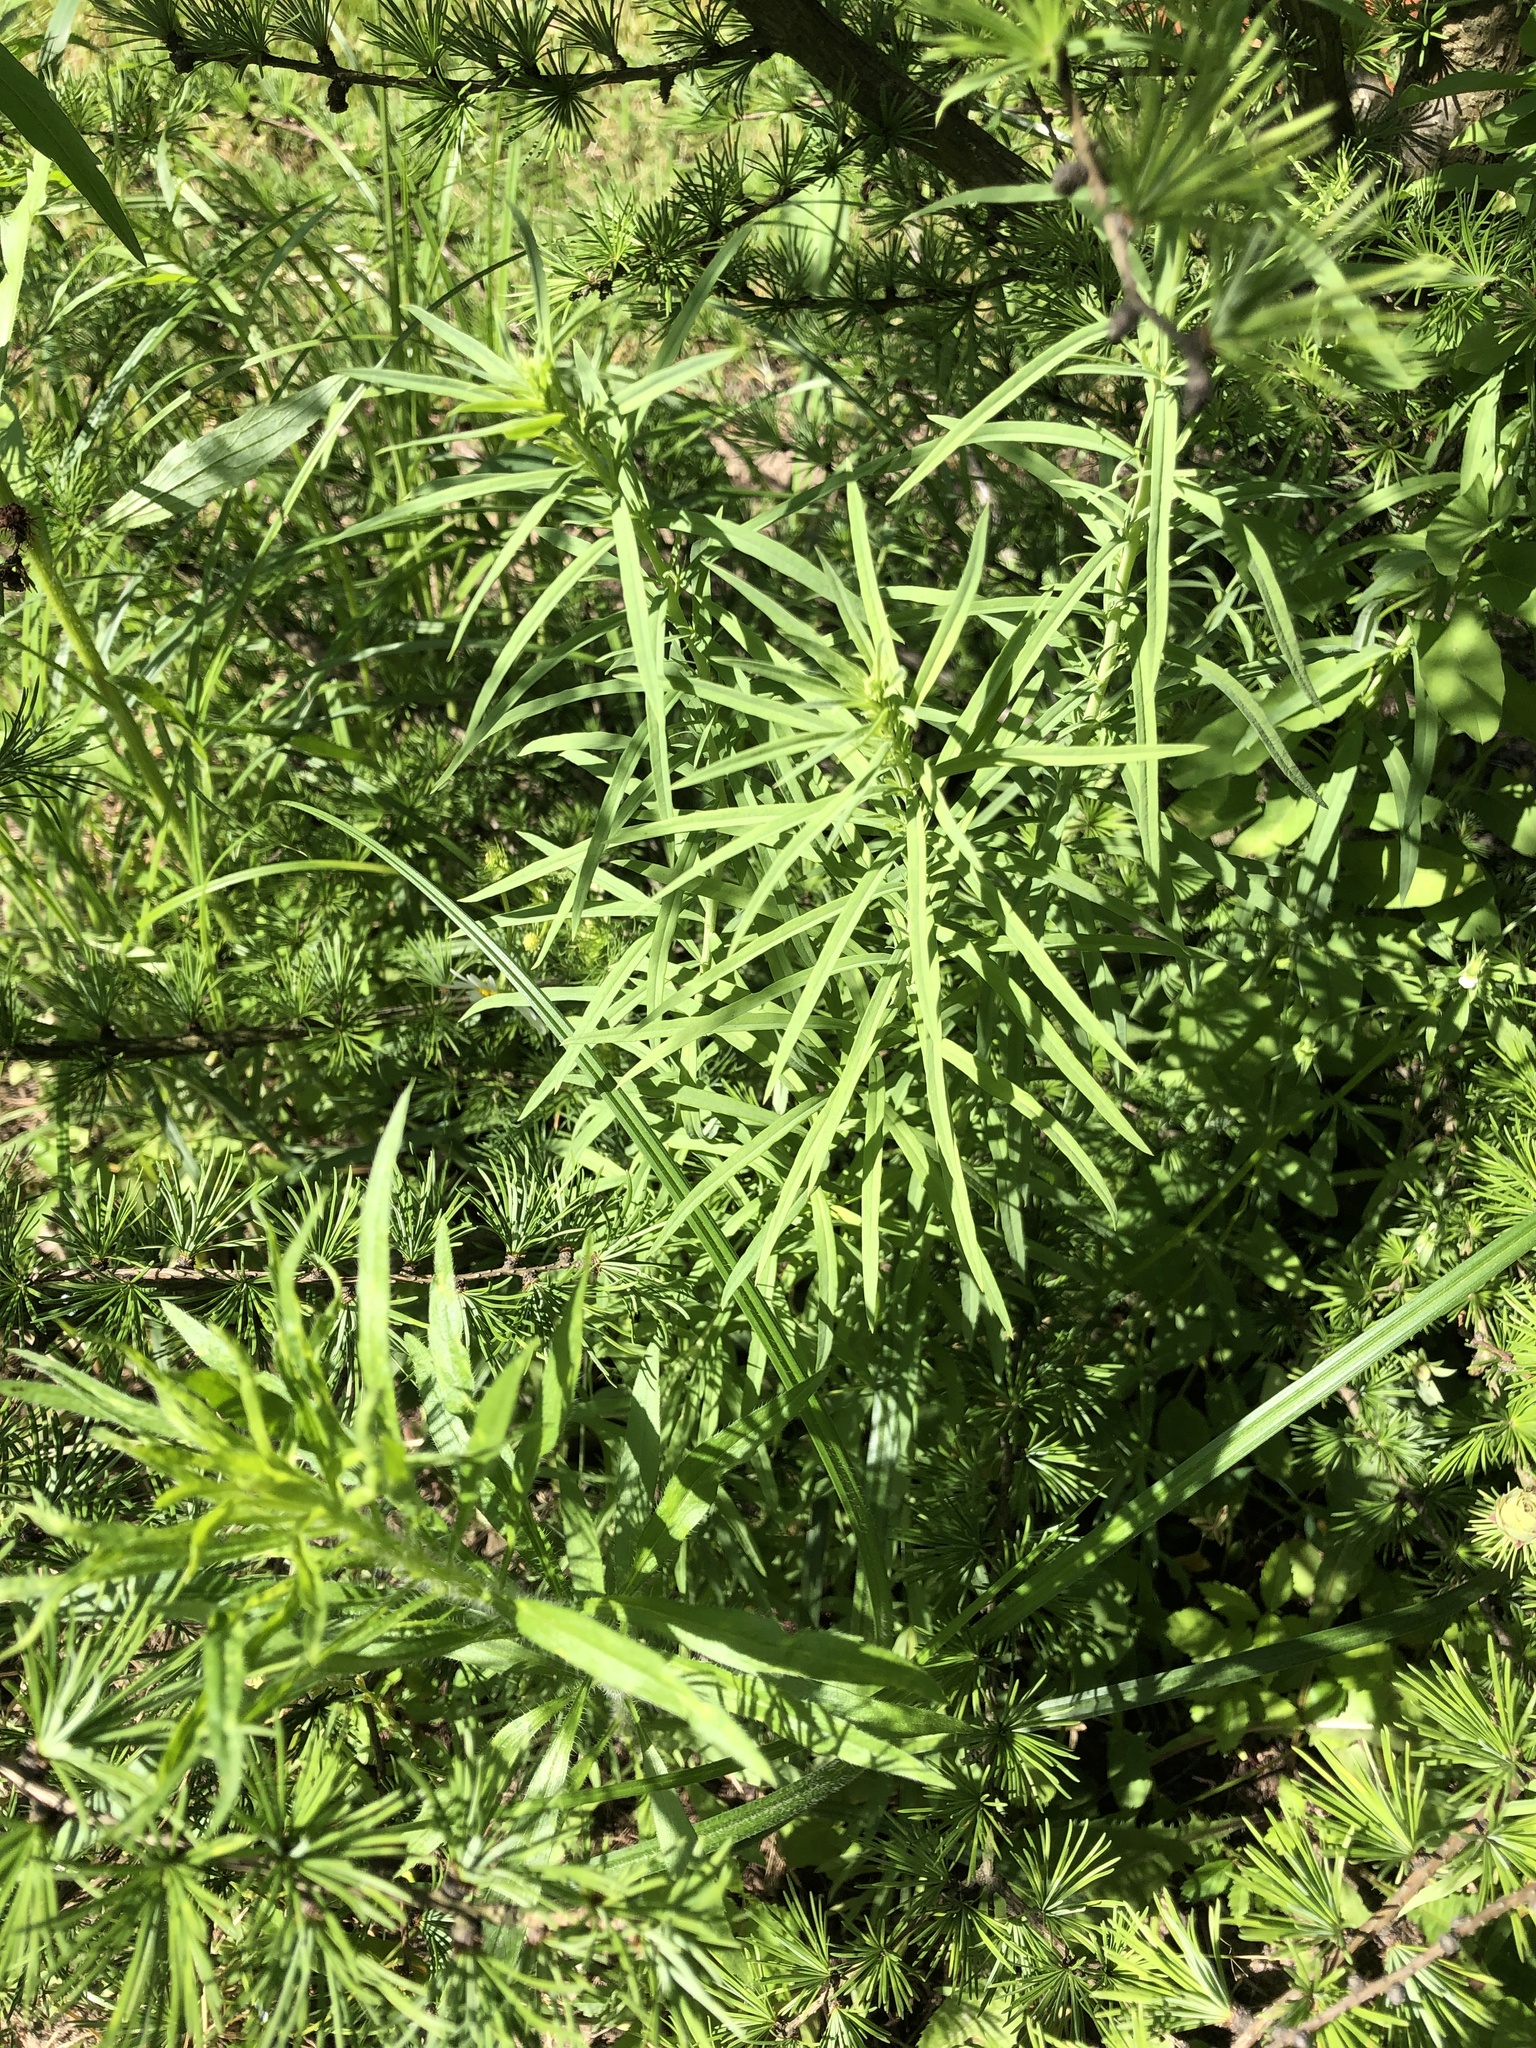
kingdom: Plantae
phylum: Tracheophyta
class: Magnoliopsida
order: Lamiales
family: Plantaginaceae
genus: Linaria
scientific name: Linaria vulgaris
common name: Butter and eggs
